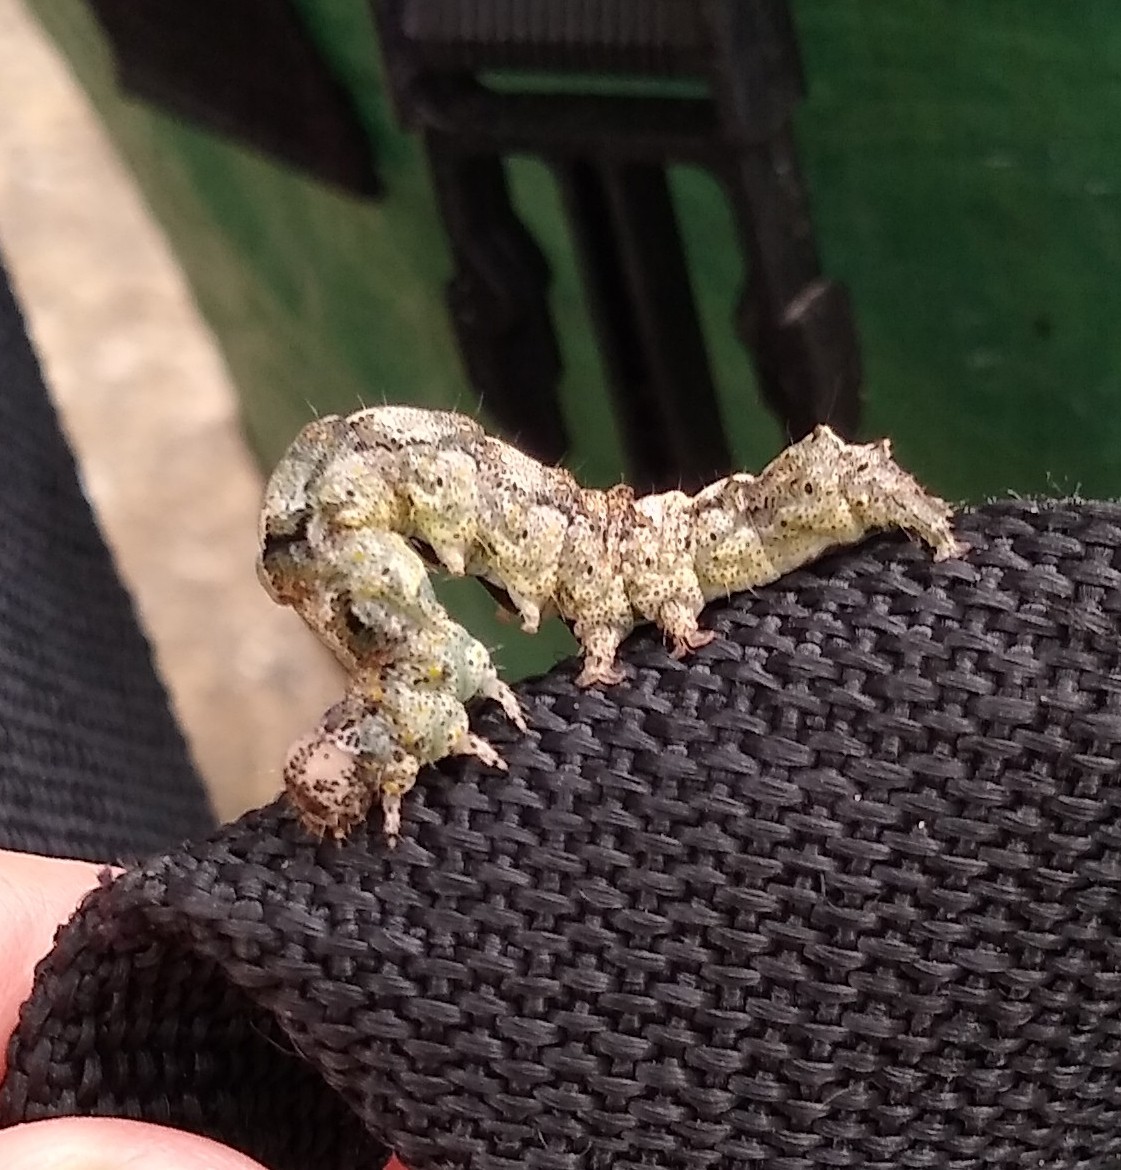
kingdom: Animalia
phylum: Arthropoda
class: Insecta
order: Lepidoptera
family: Erebidae
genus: Metria
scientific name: Metria amella
